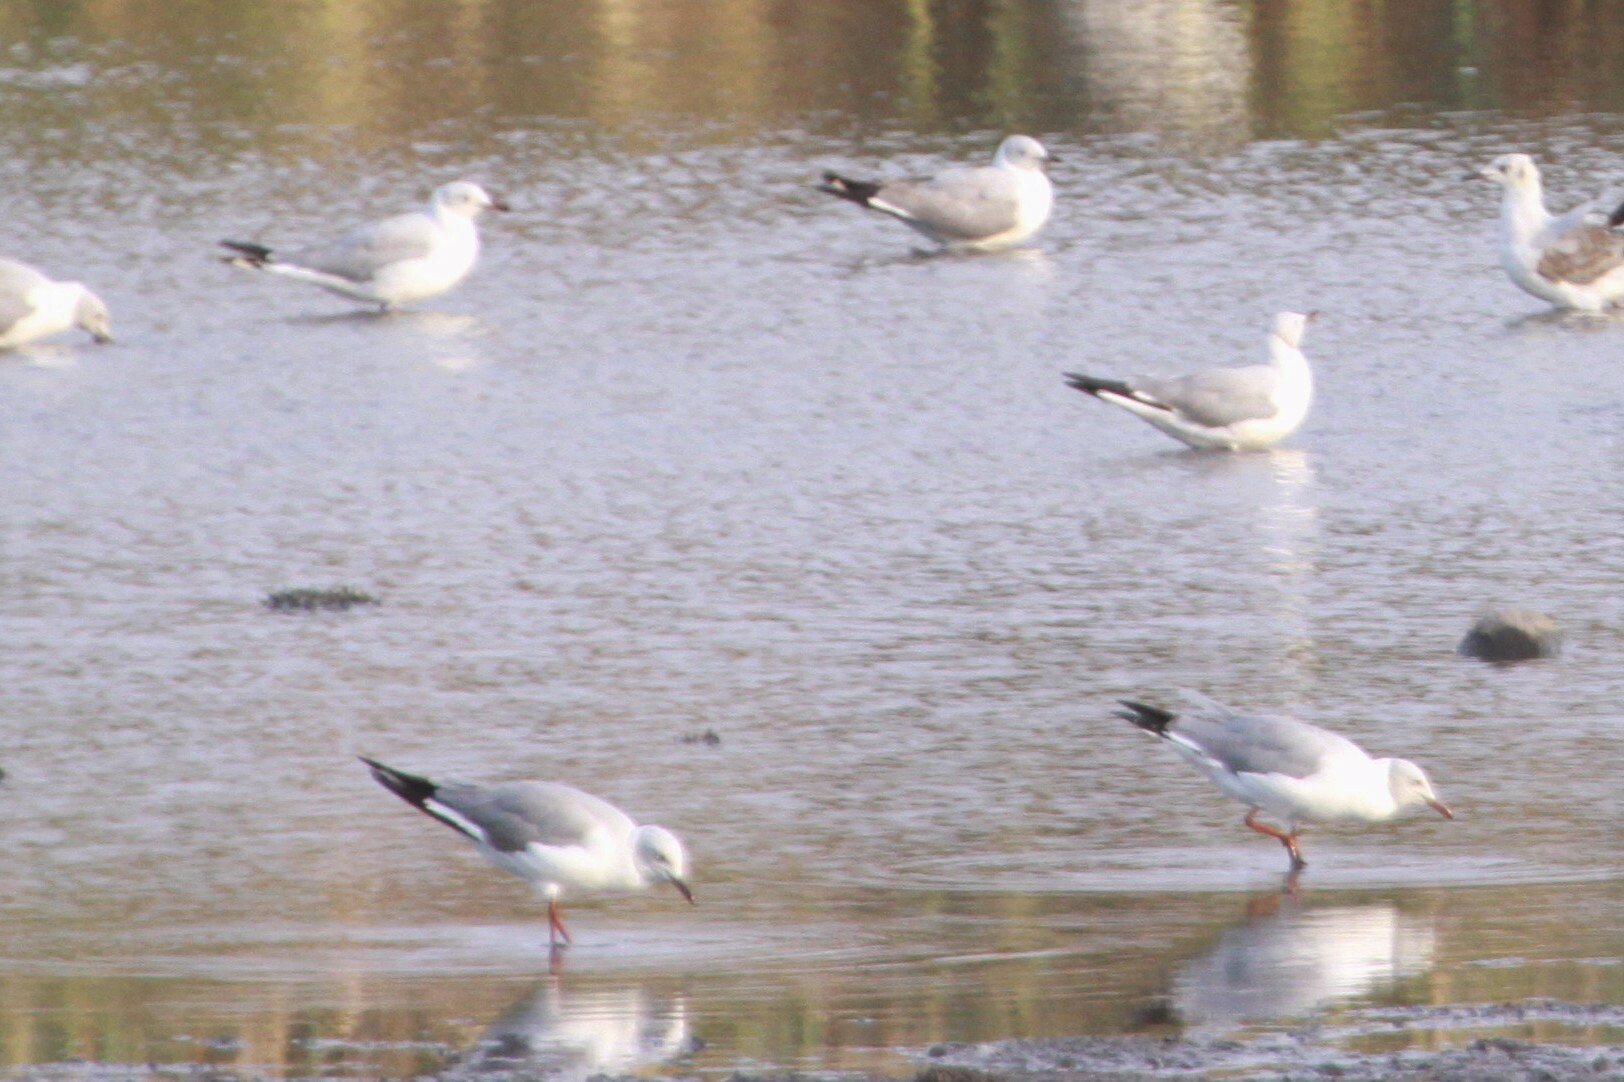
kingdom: Animalia
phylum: Chordata
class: Aves
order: Charadriiformes
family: Laridae
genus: Chroicocephalus
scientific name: Chroicocephalus cirrocephalus
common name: Grey-headed gull
